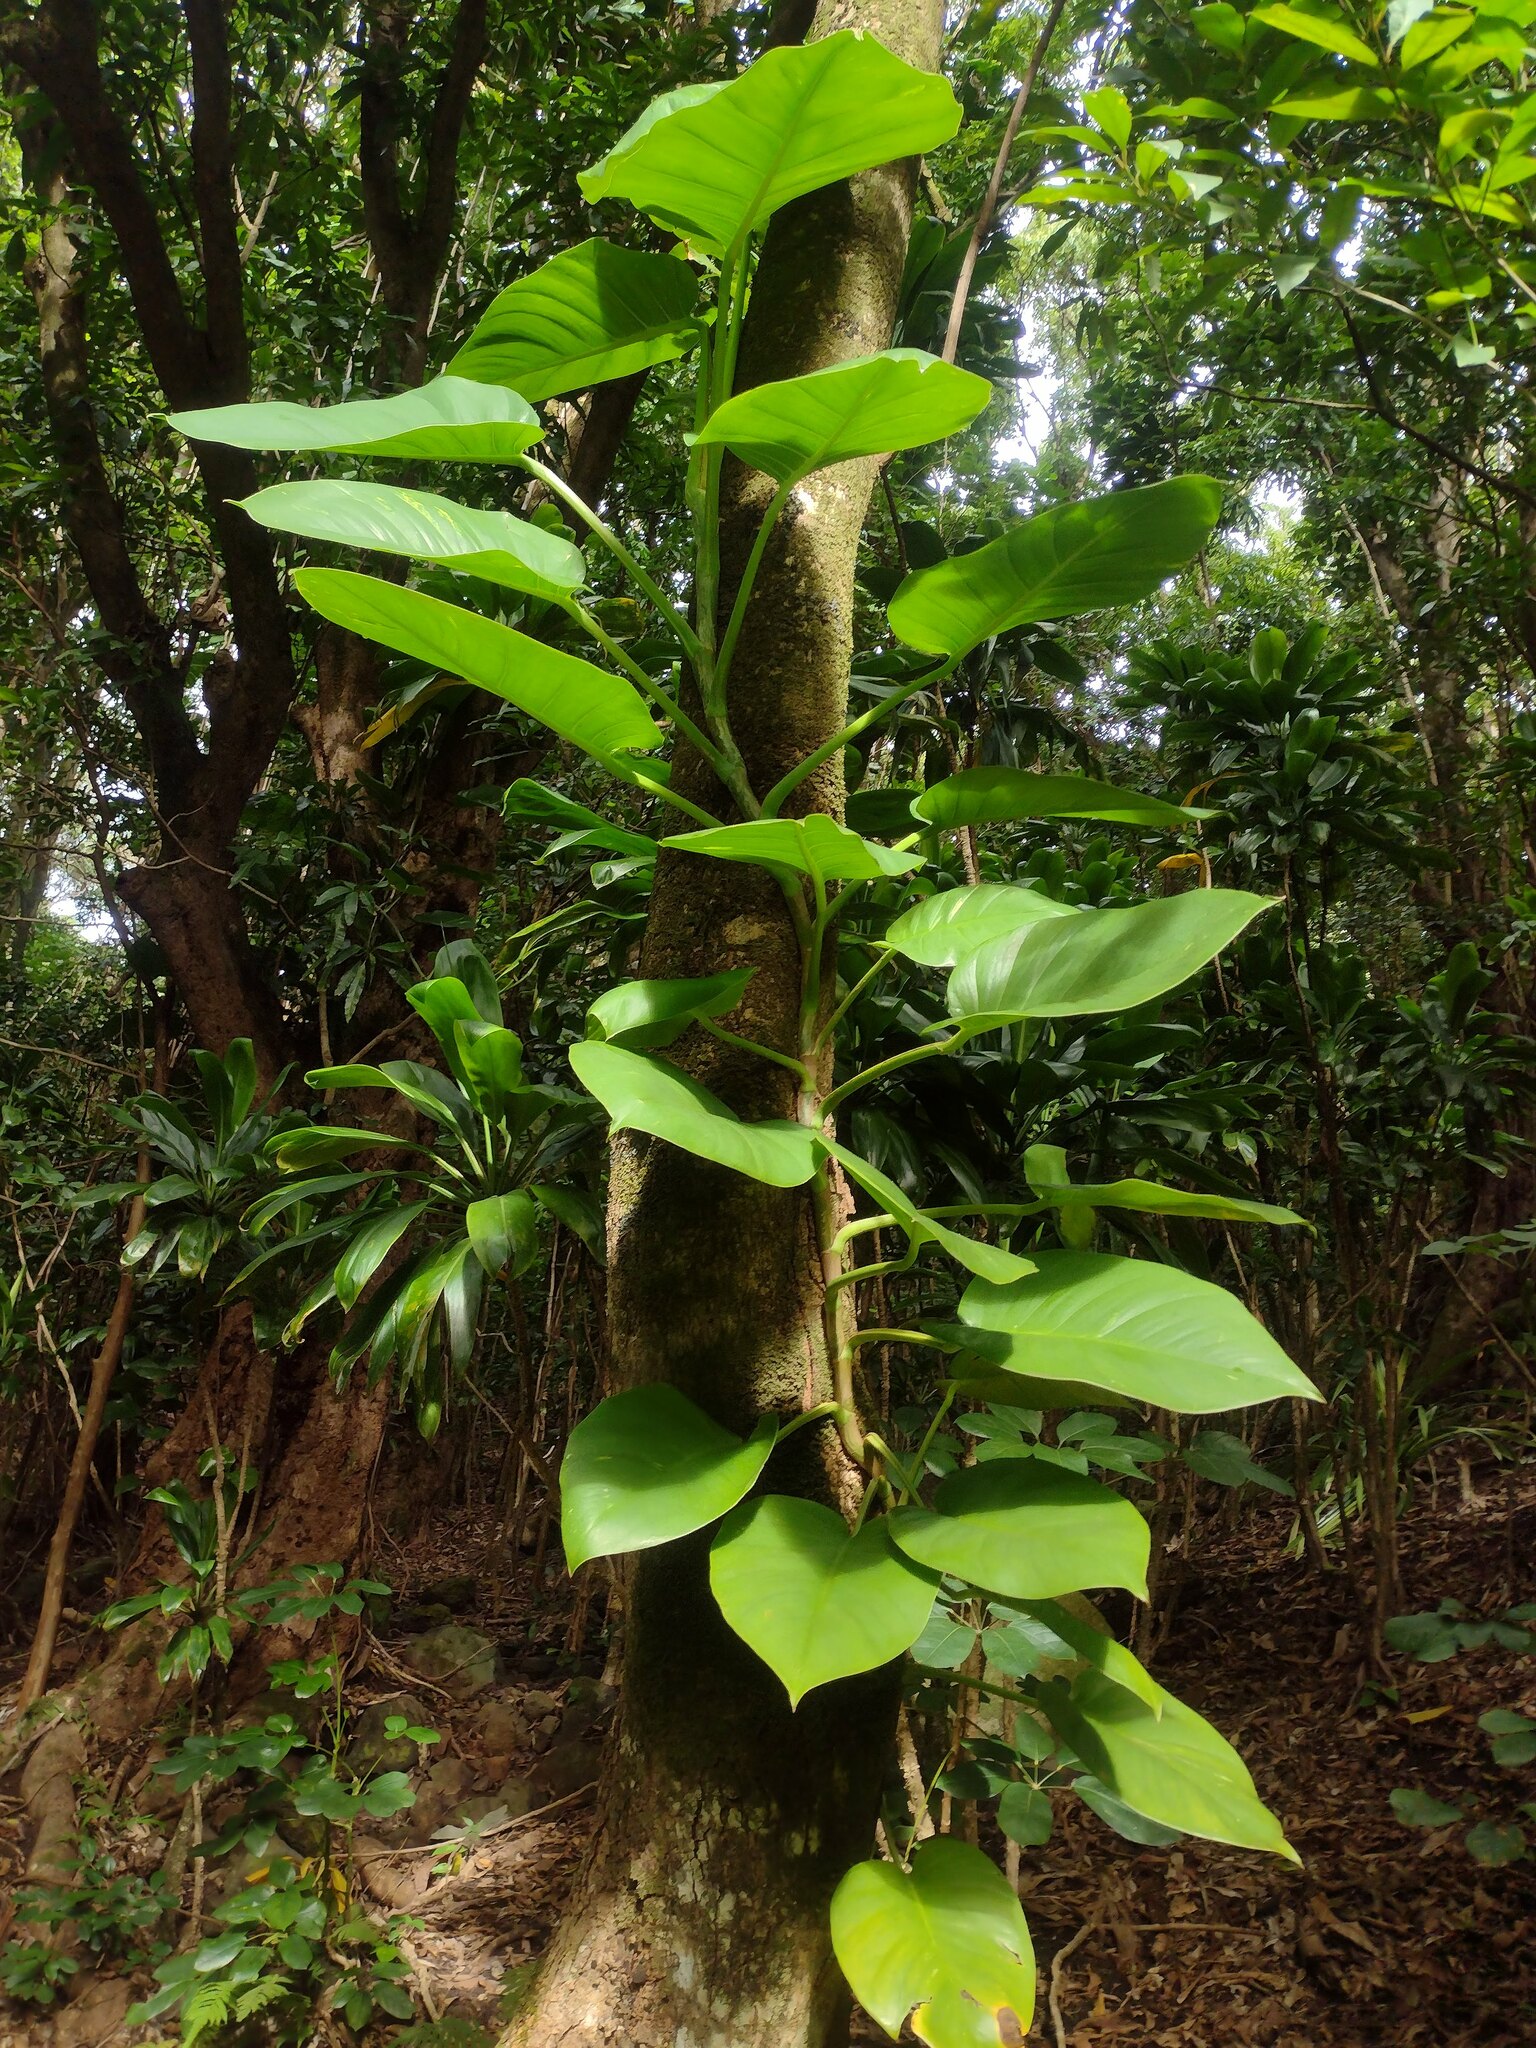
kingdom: Plantae
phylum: Tracheophyta
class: Liliopsida
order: Alismatales
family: Araceae
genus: Epipremnum
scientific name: Epipremnum aureum
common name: Golden hunter's-robe
